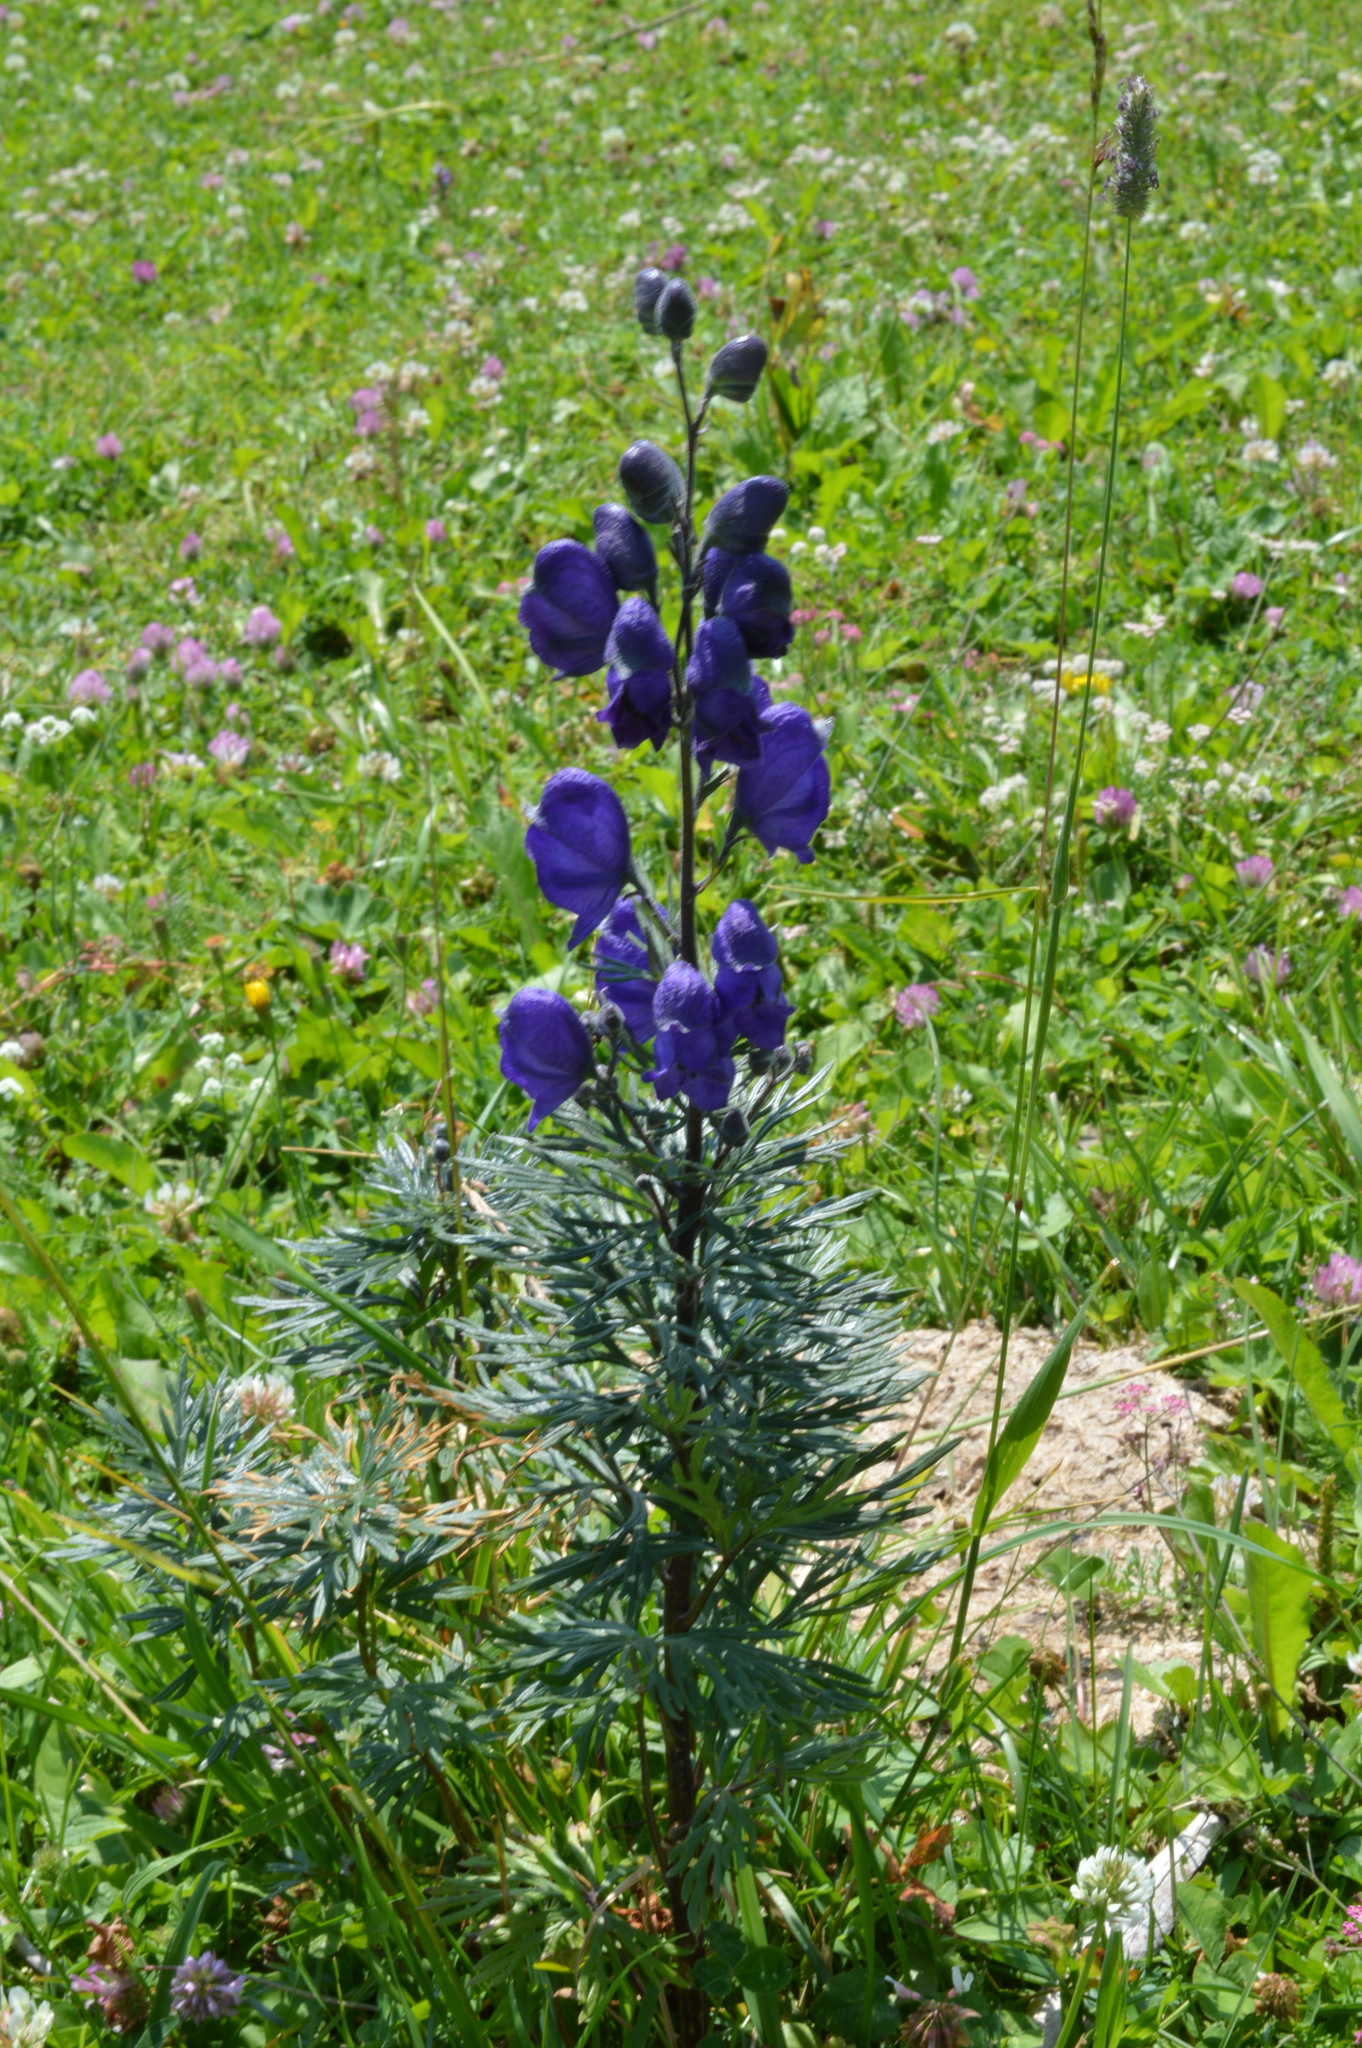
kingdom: Plantae
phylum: Tracheophyta
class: Magnoliopsida
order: Ranunculales
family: Ranunculaceae
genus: Aconitum
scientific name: Aconitum napellus
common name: Garden monkshood
